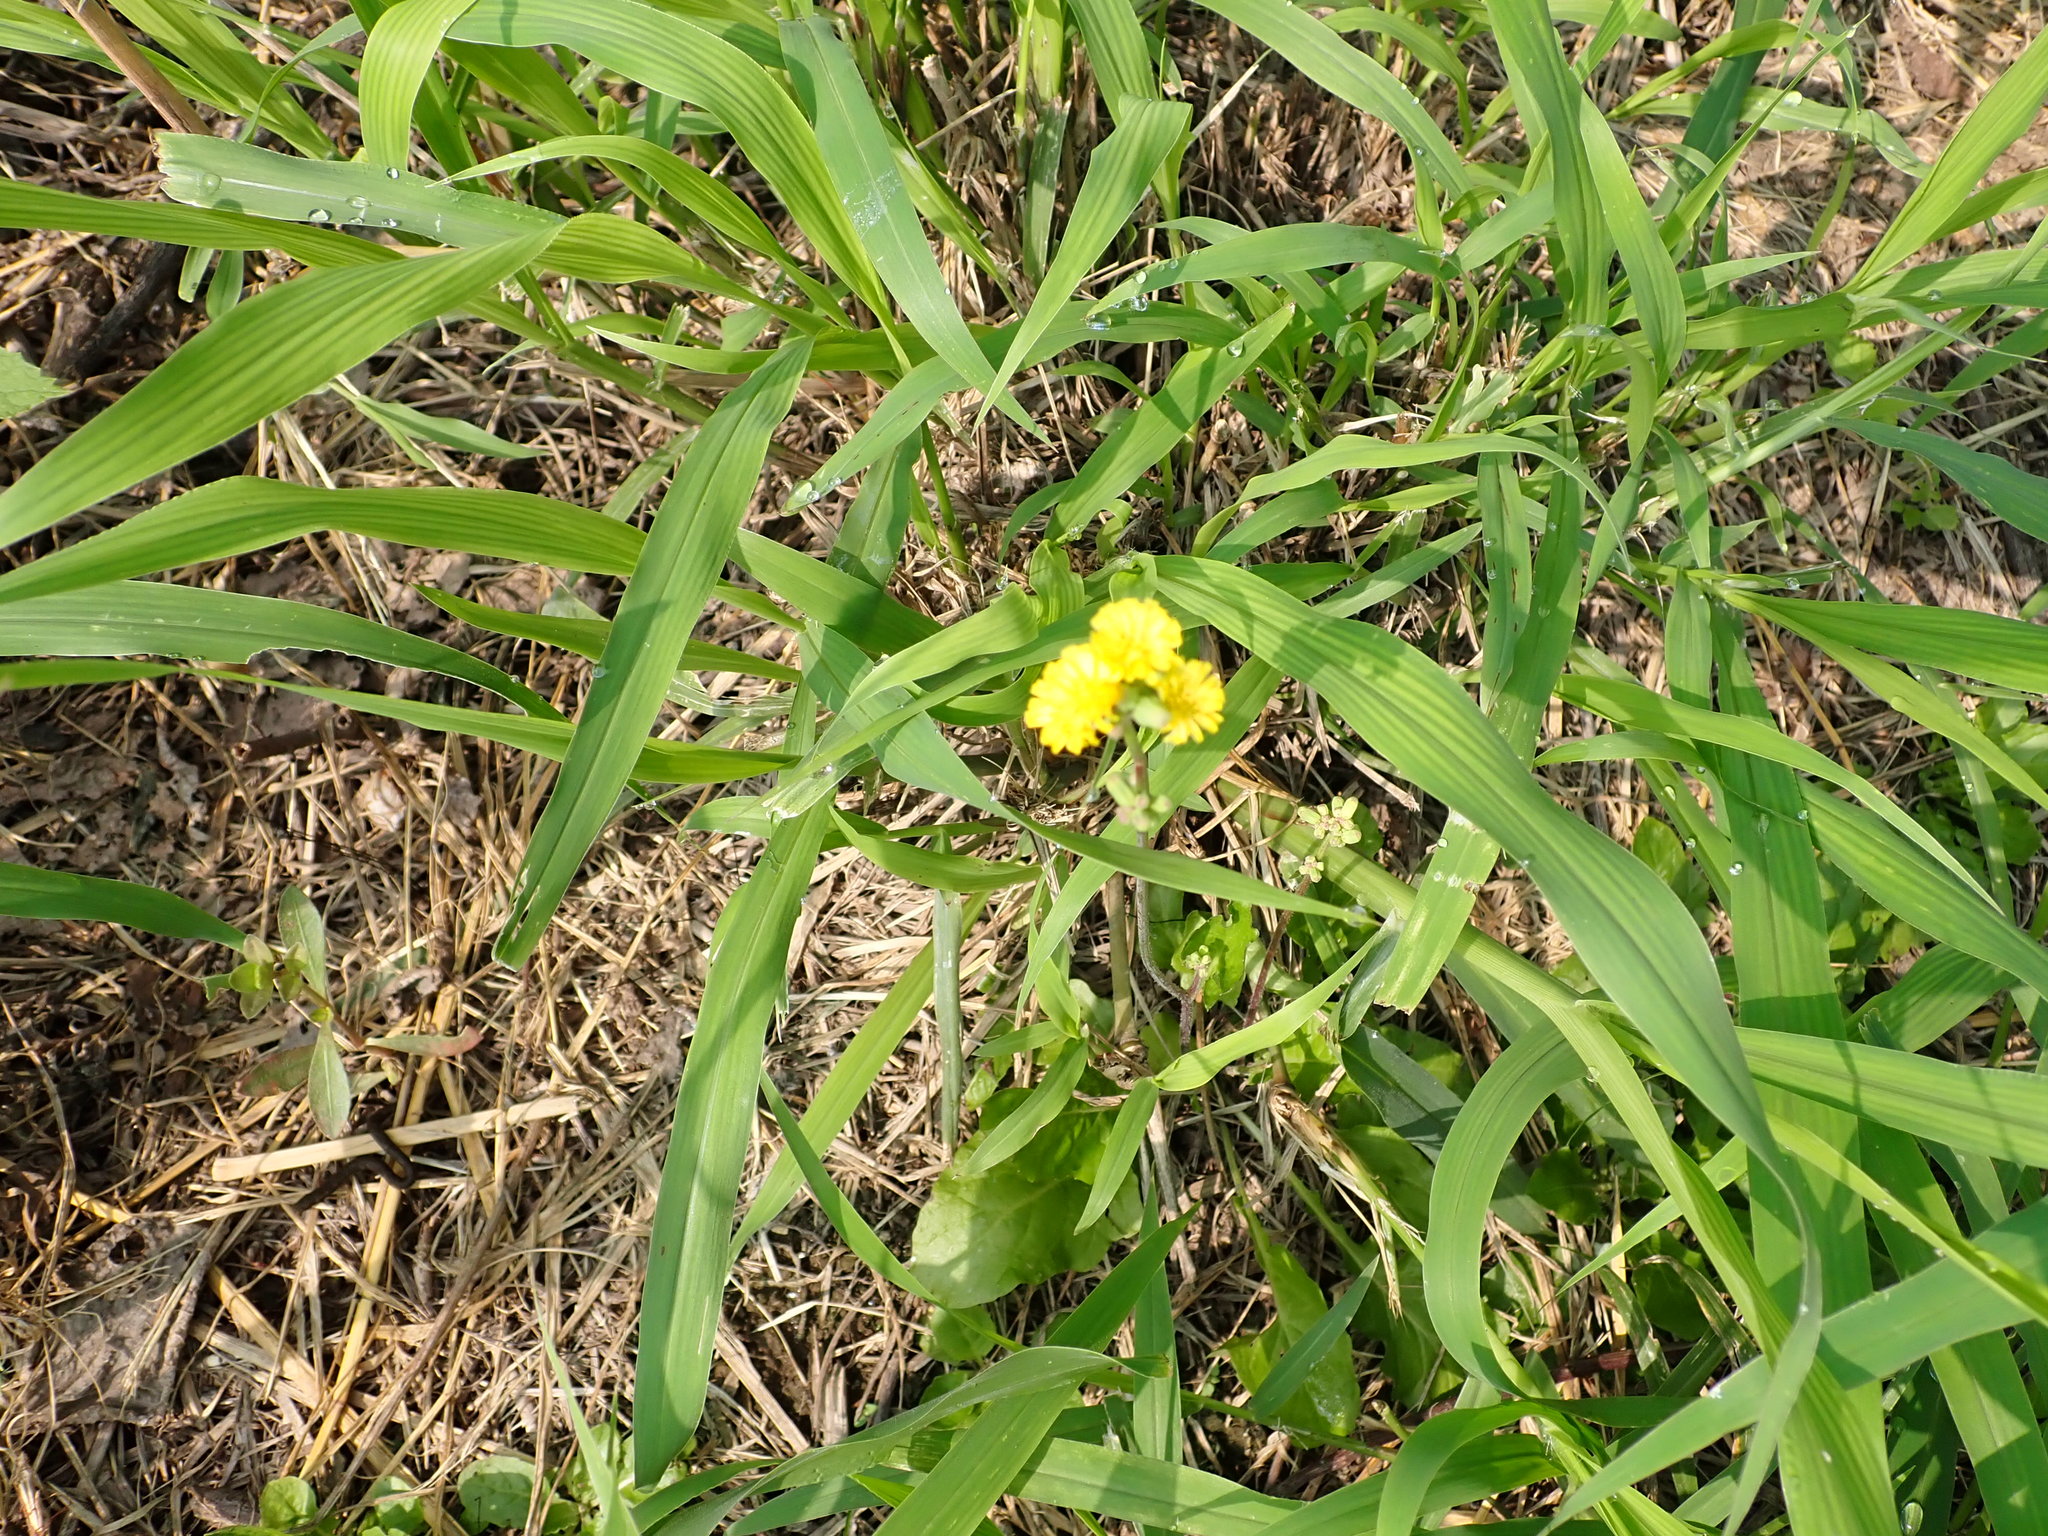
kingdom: Plantae
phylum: Tracheophyta
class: Magnoliopsida
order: Asterales
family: Asteraceae
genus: Youngia
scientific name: Youngia japonica
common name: Oriental false hawksbeard
